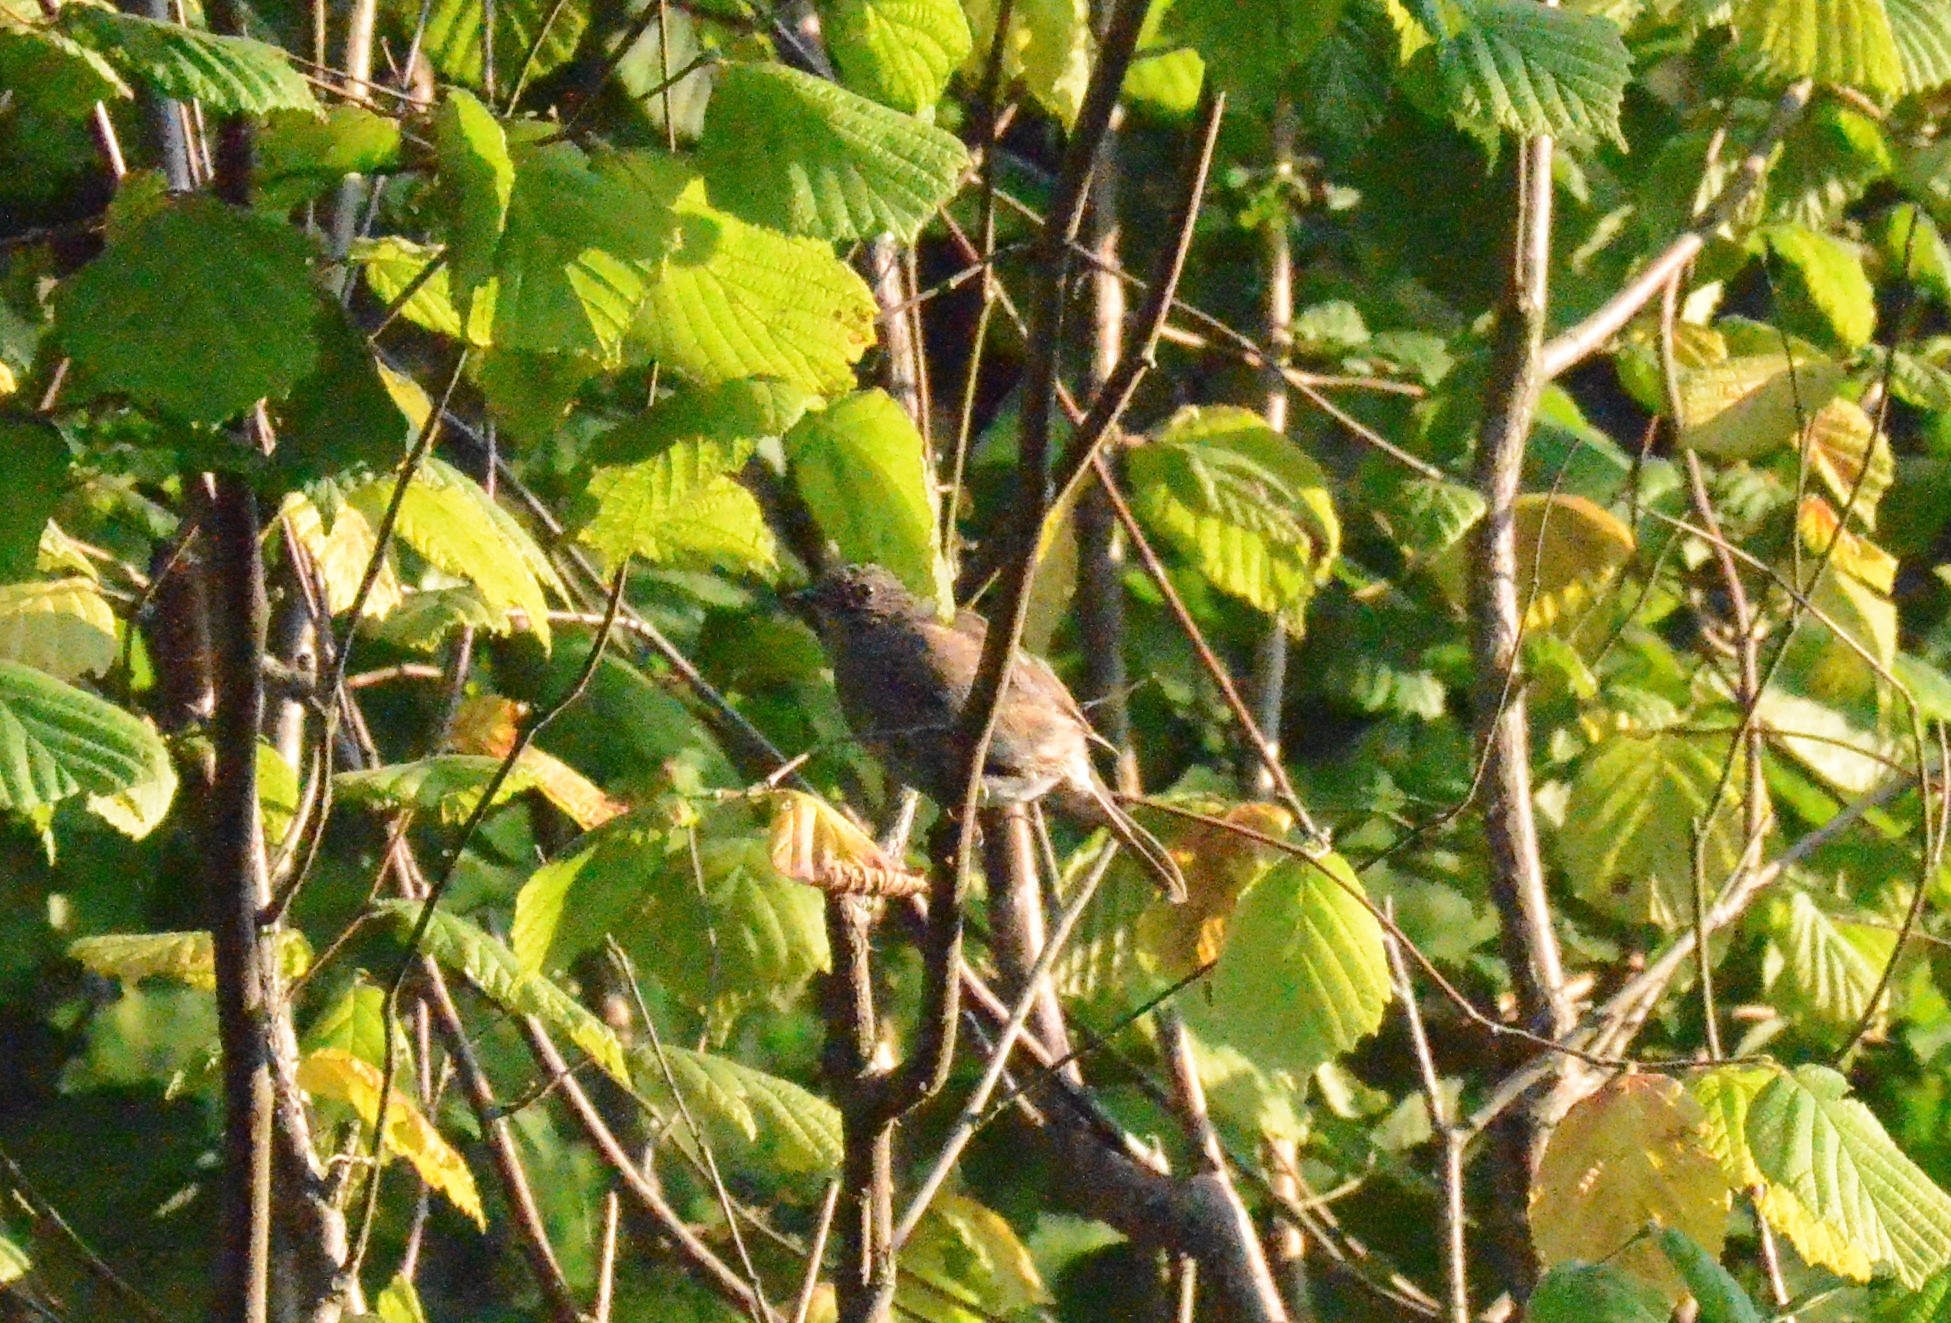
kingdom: Animalia
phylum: Chordata
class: Aves
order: Passeriformes
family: Prunellidae
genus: Prunella
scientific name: Prunella modularis
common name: Dunnock
